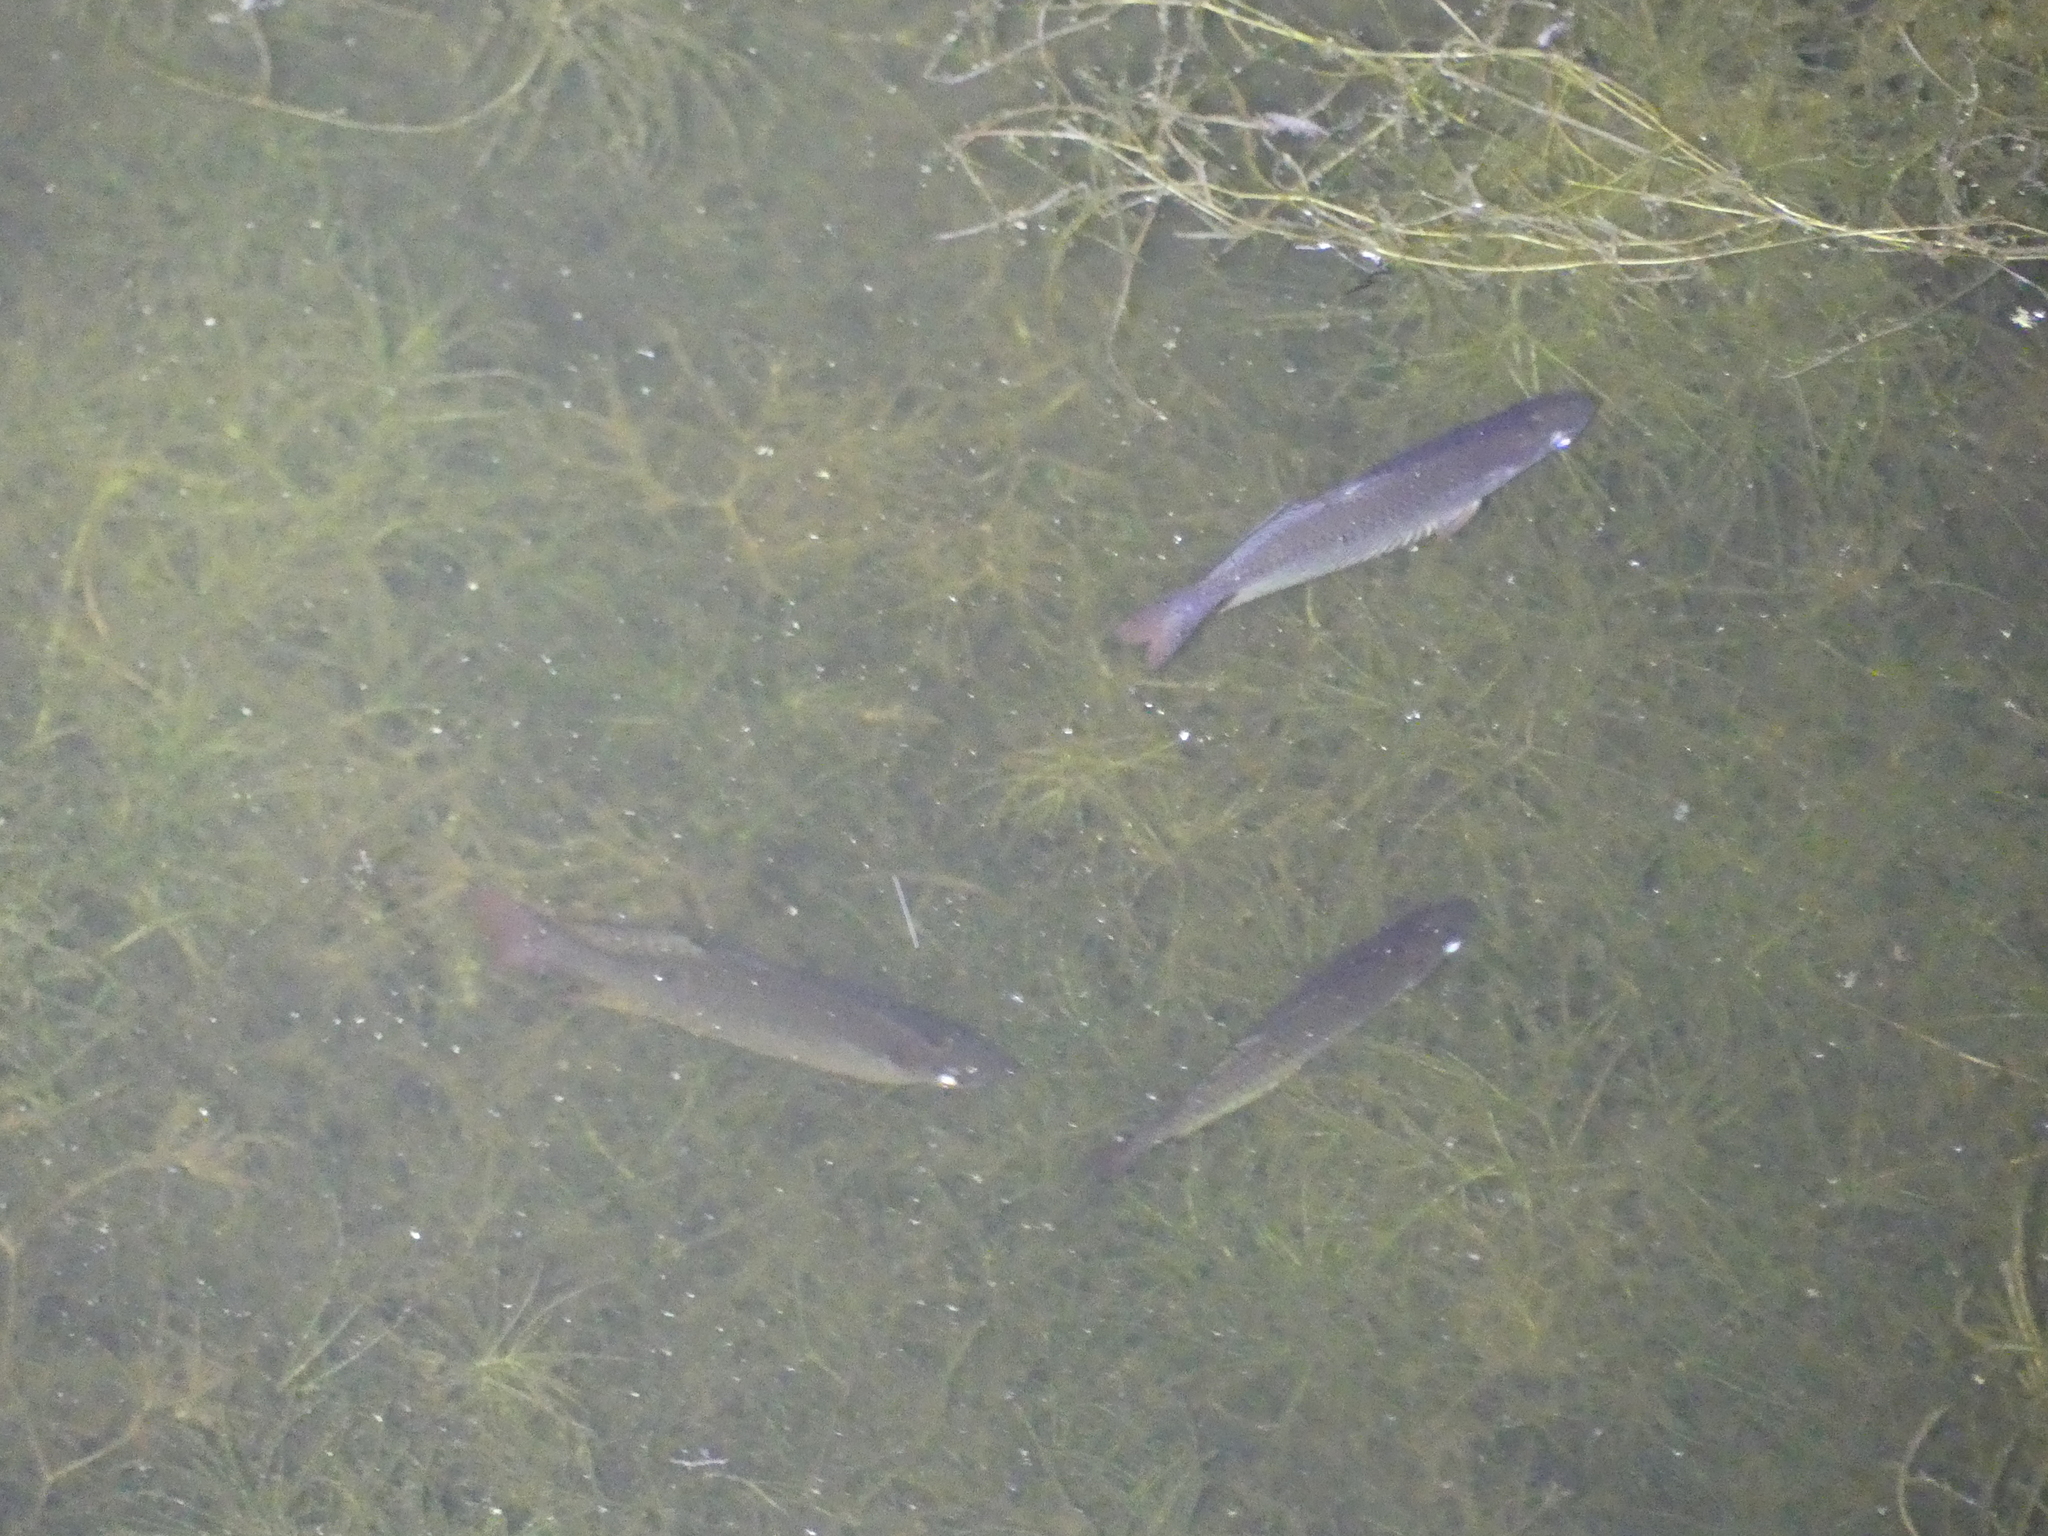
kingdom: Animalia
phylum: Chordata
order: Atheriniformes
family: Melanotaeniidae
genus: Melanotaenia
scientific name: Melanotaenia splendida
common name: Checkered rainbowfish
